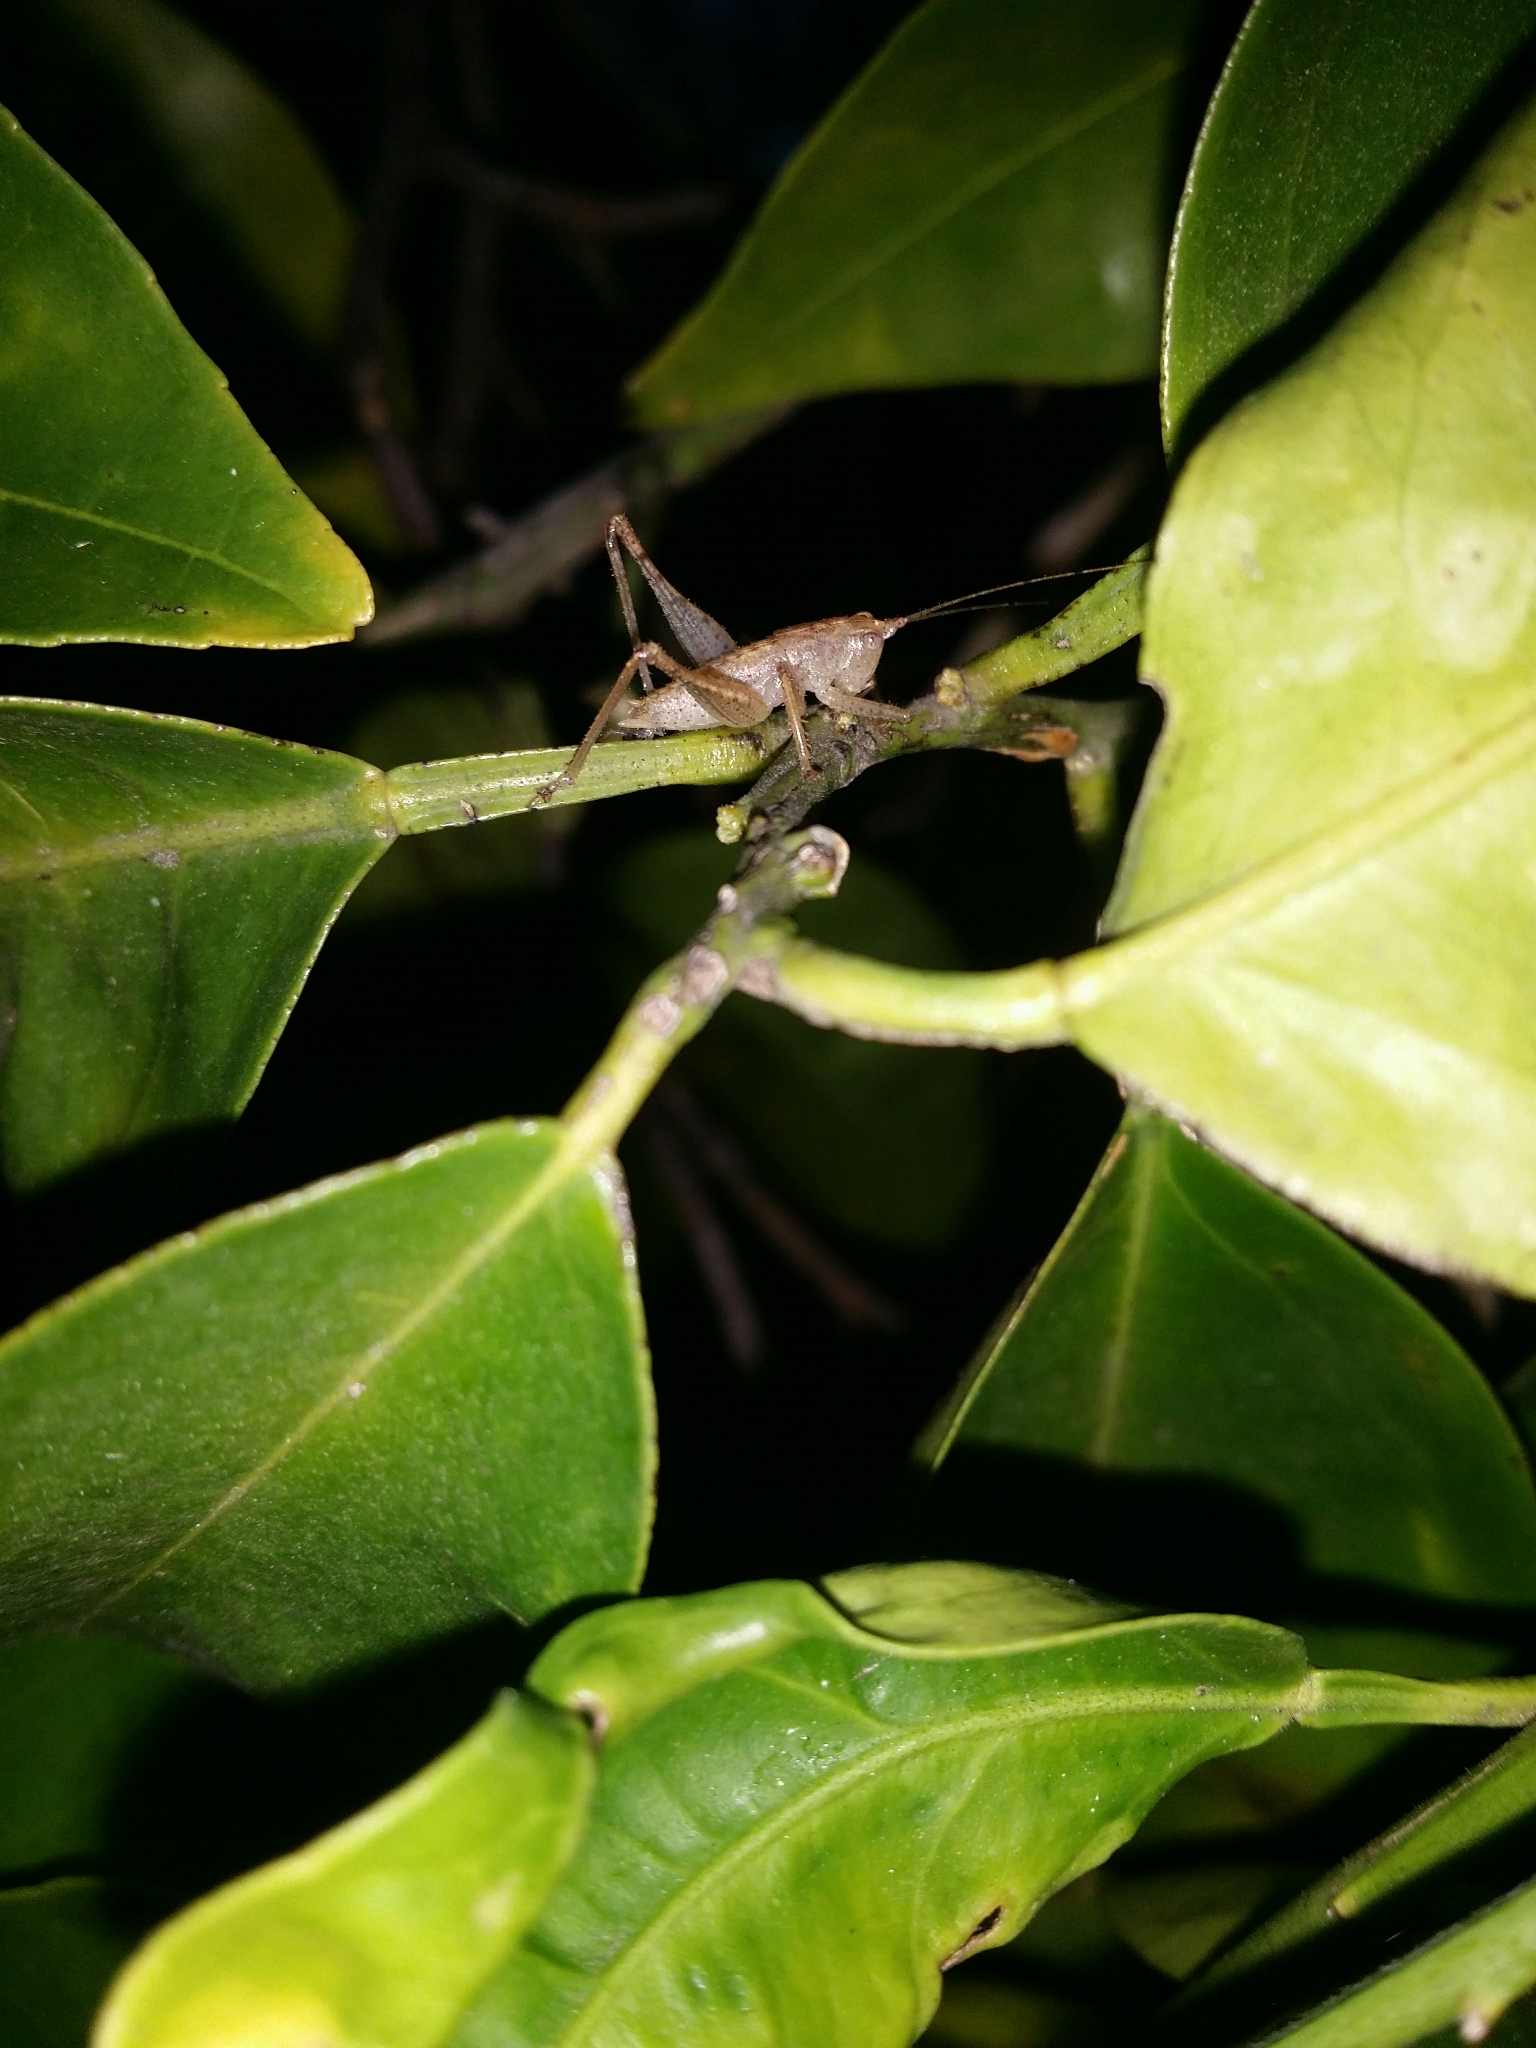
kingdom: Animalia
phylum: Arthropoda
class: Insecta
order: Orthoptera
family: Tettigoniidae
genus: Requena
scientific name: Requena verticalis
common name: Common western requena
